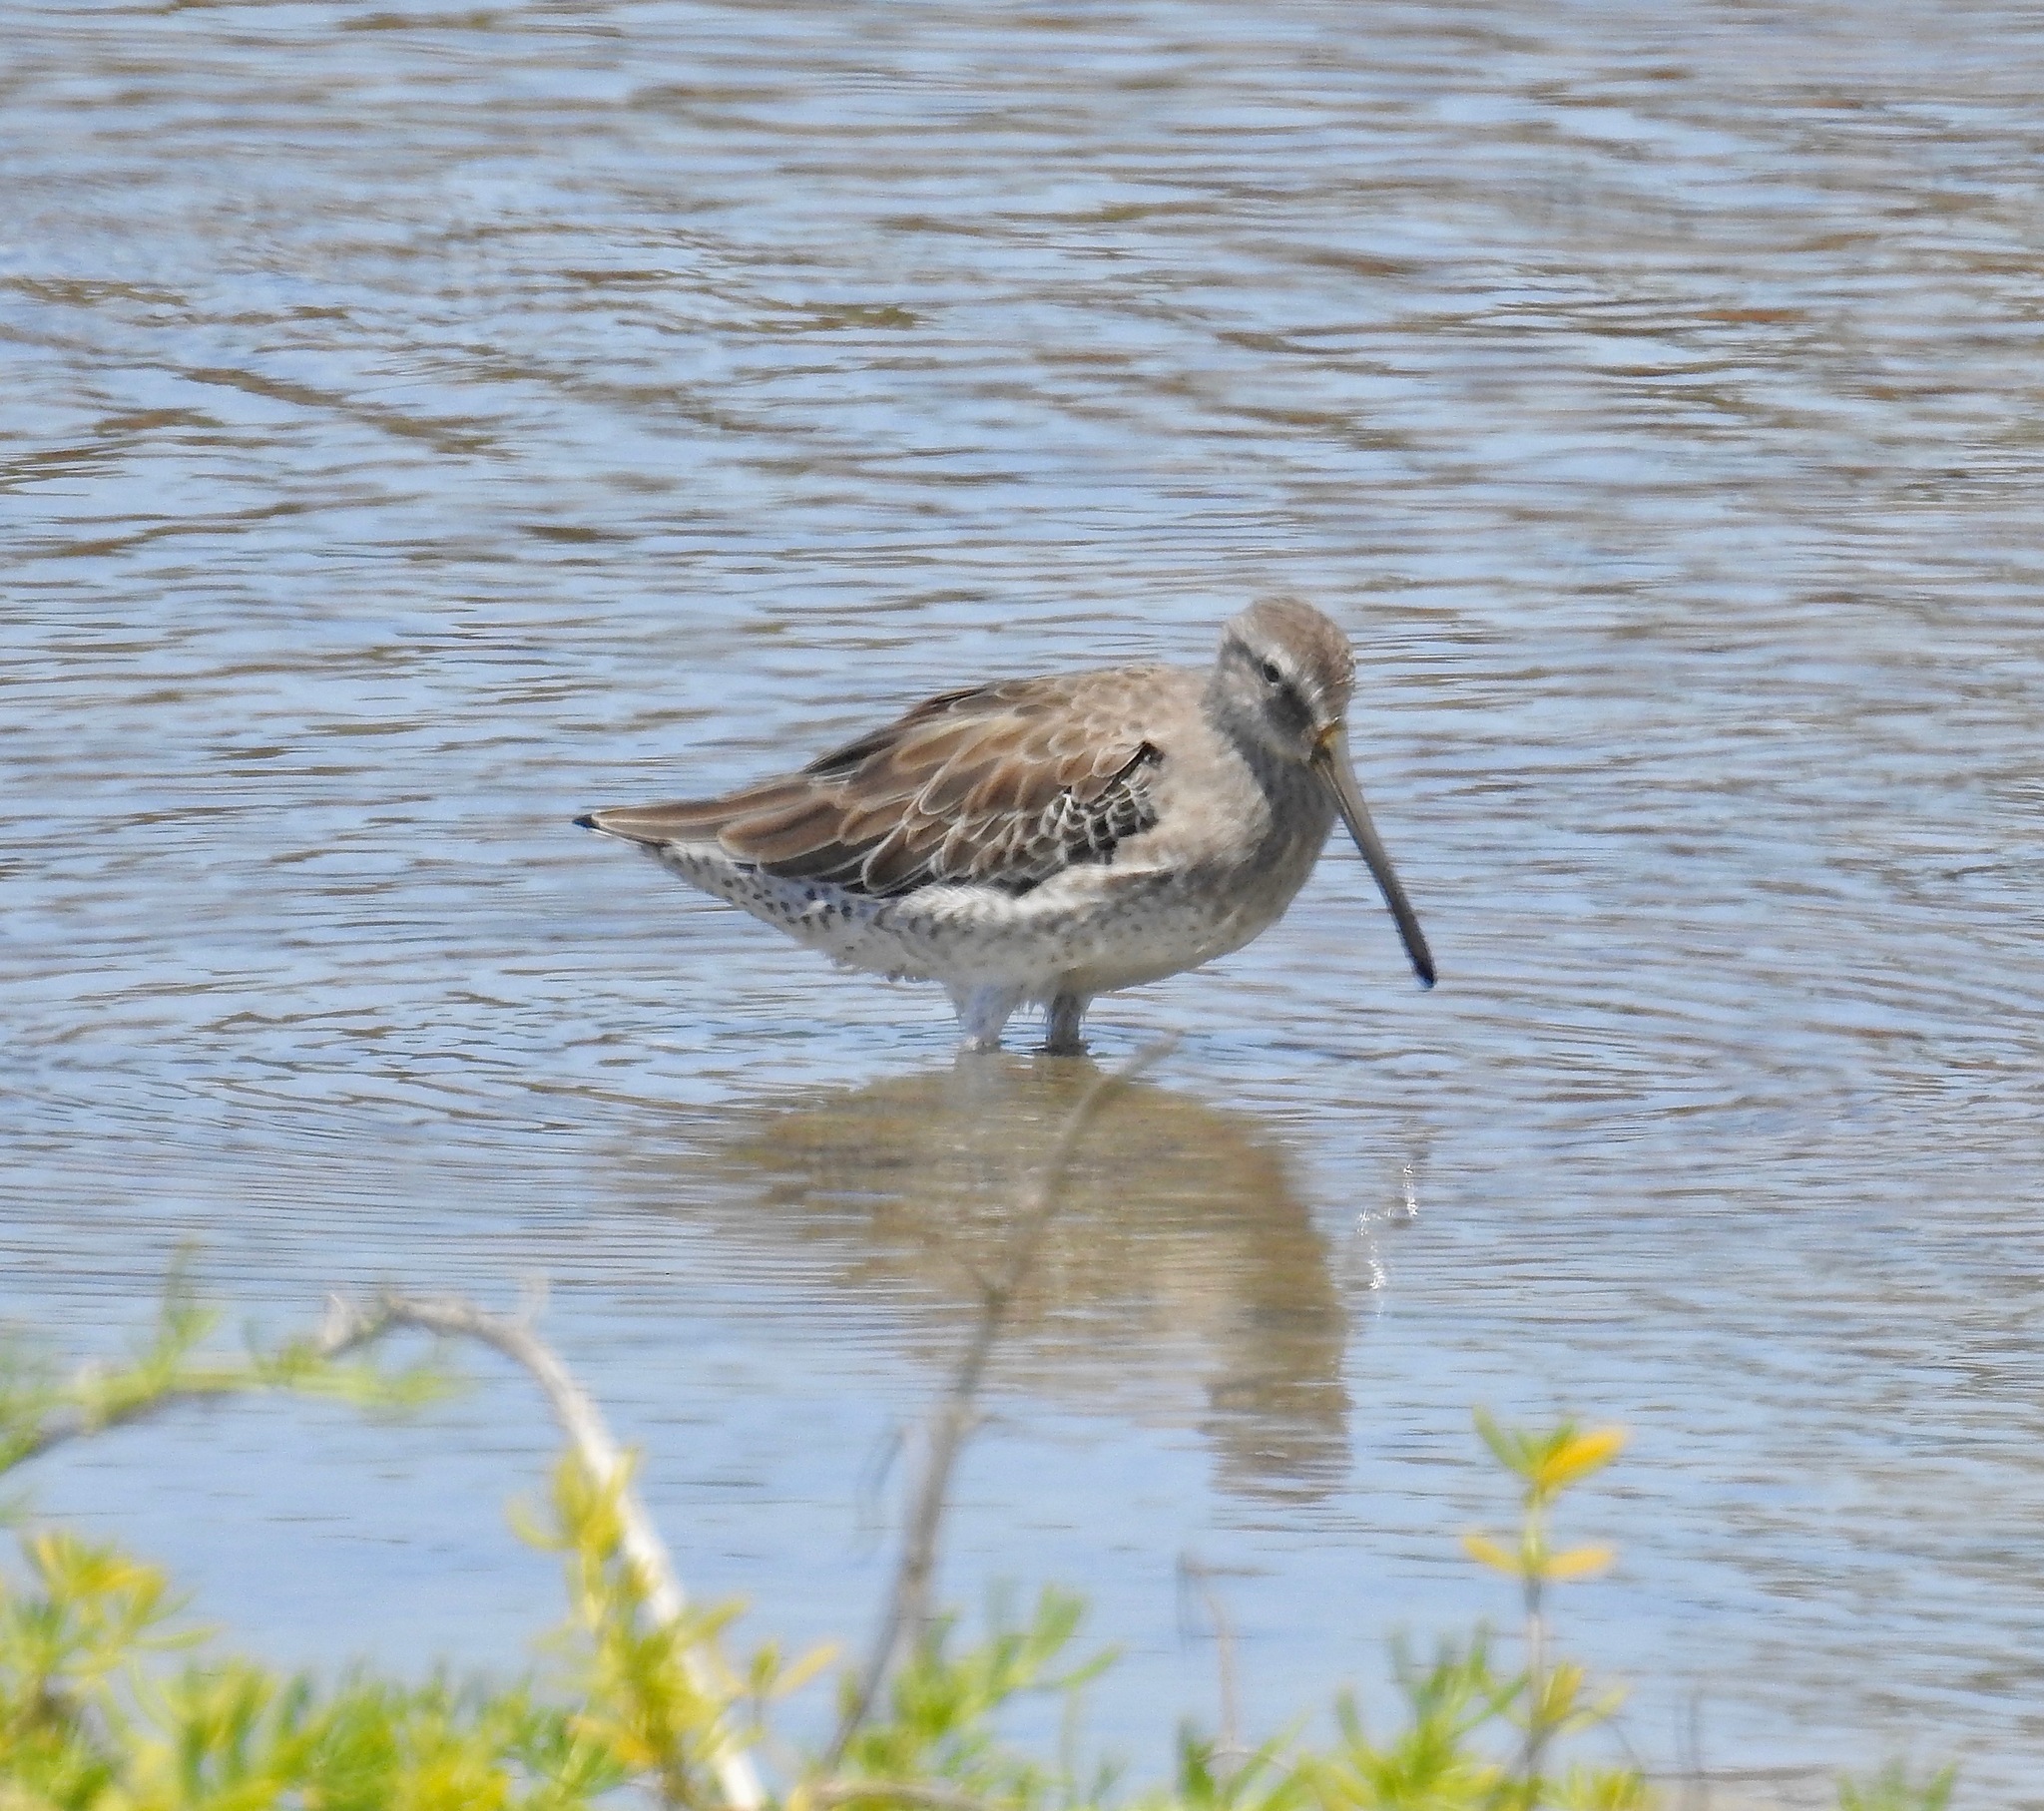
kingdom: Animalia
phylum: Chordata
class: Aves
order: Charadriiformes
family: Scolopacidae
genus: Limnodromus
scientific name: Limnodromus griseus
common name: Short-billed dowitcher
